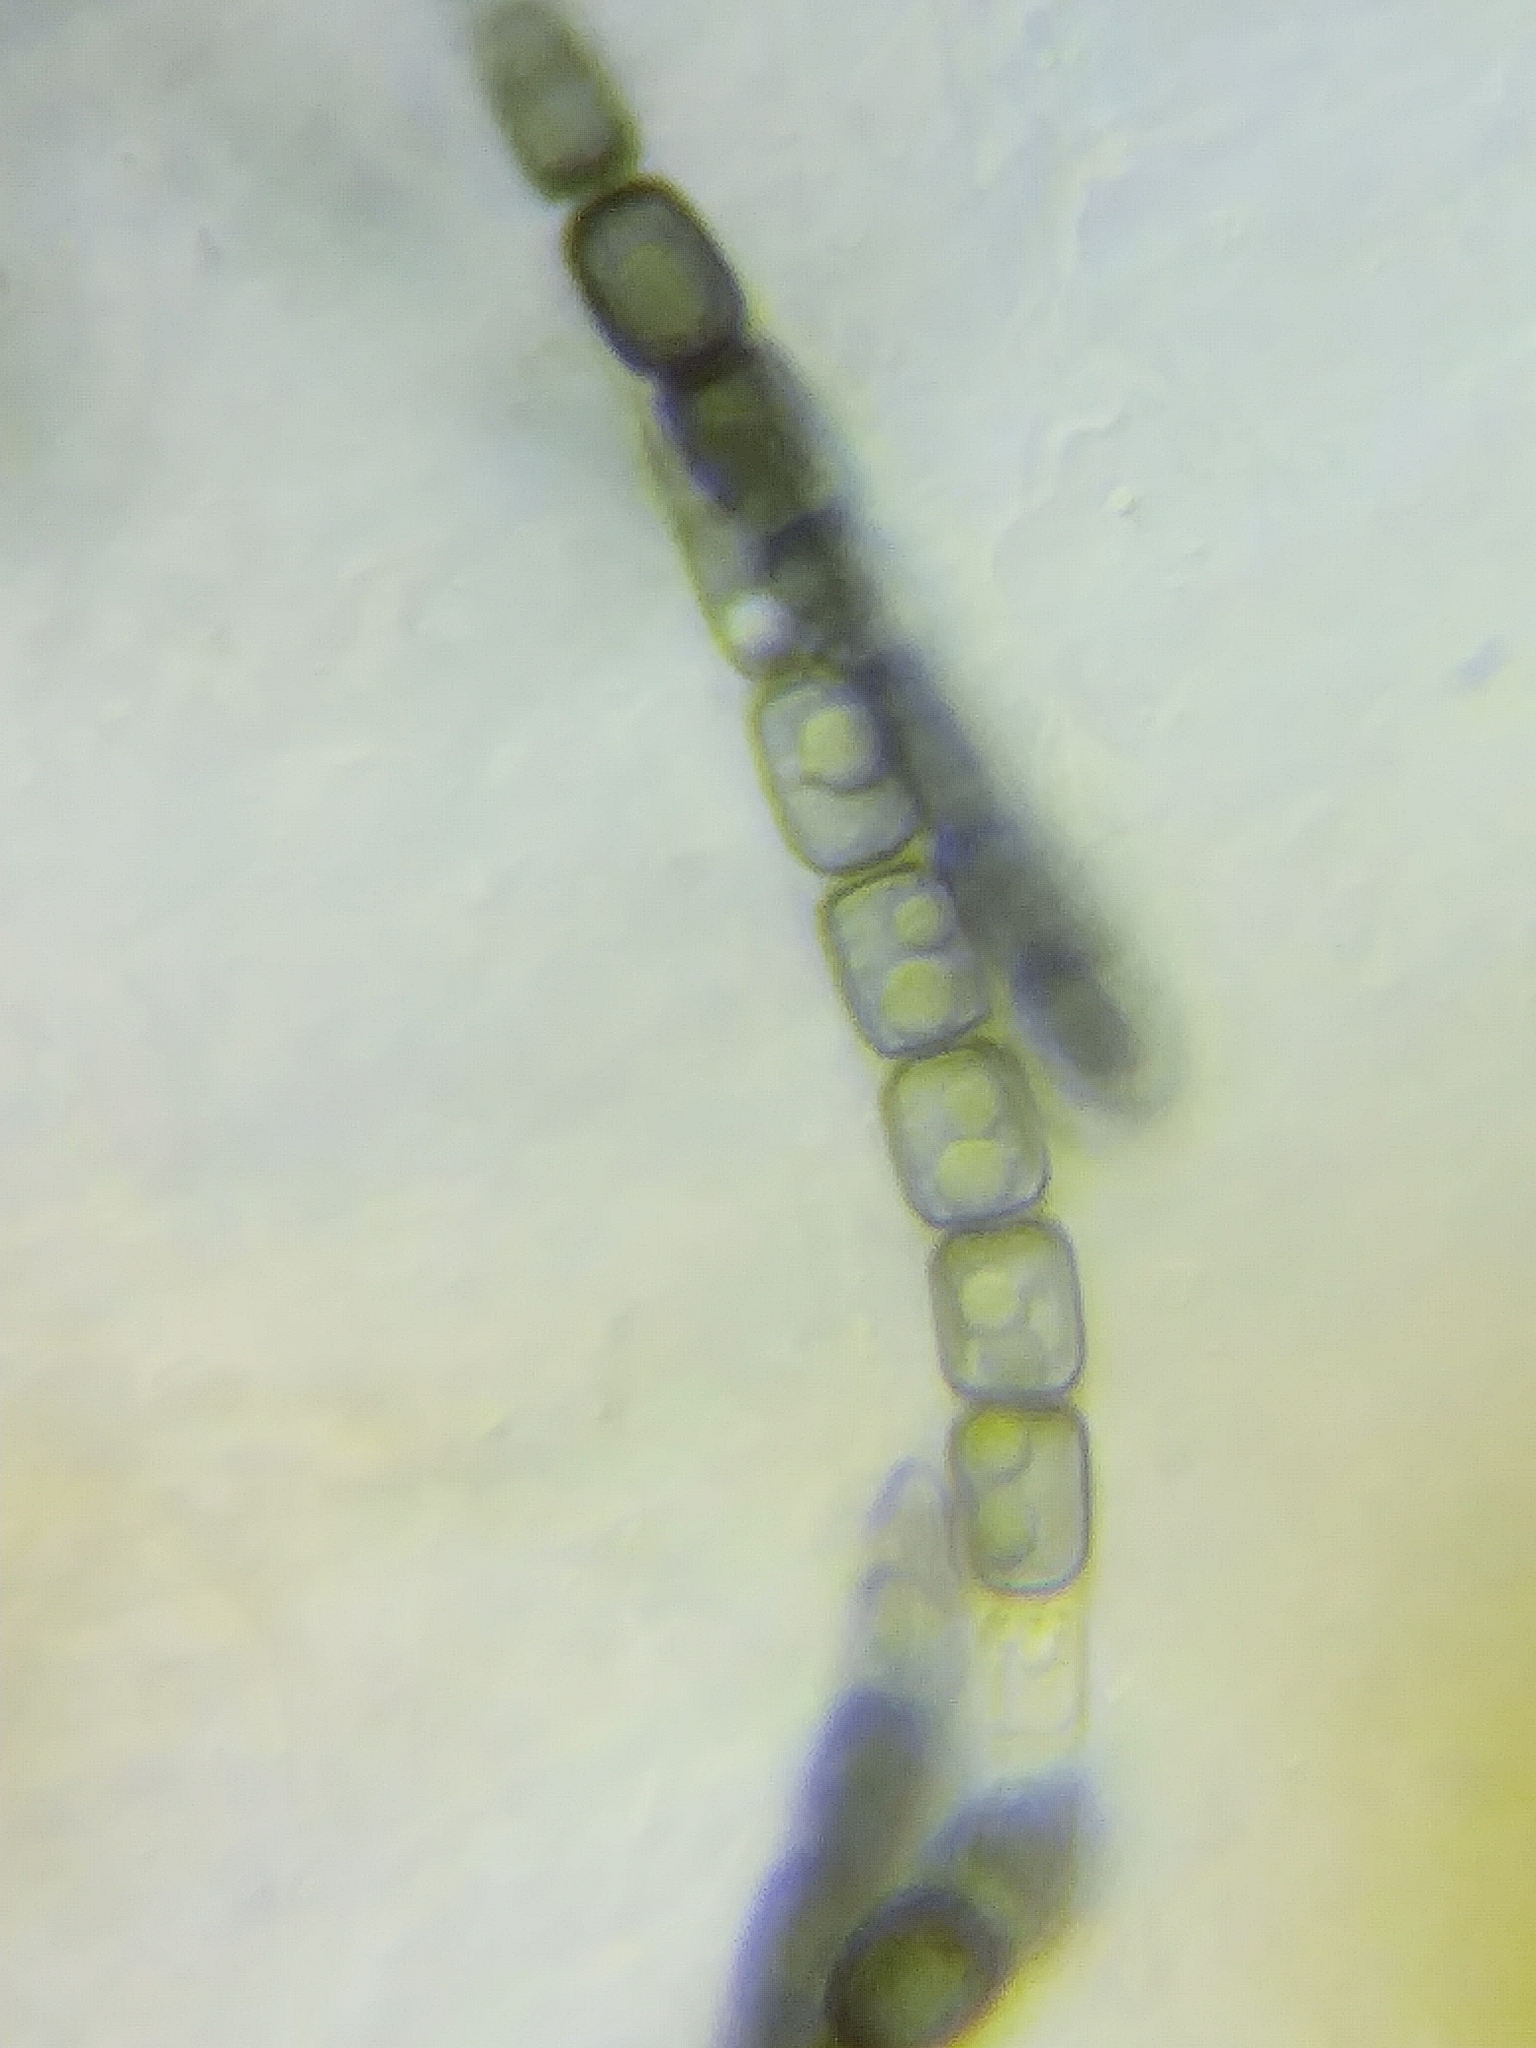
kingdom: Fungi
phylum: Ascomycota
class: Sordariomycetes
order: Xylariales
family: Hypoxylaceae
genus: Thuemenella
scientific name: Thuemenella cubispora
